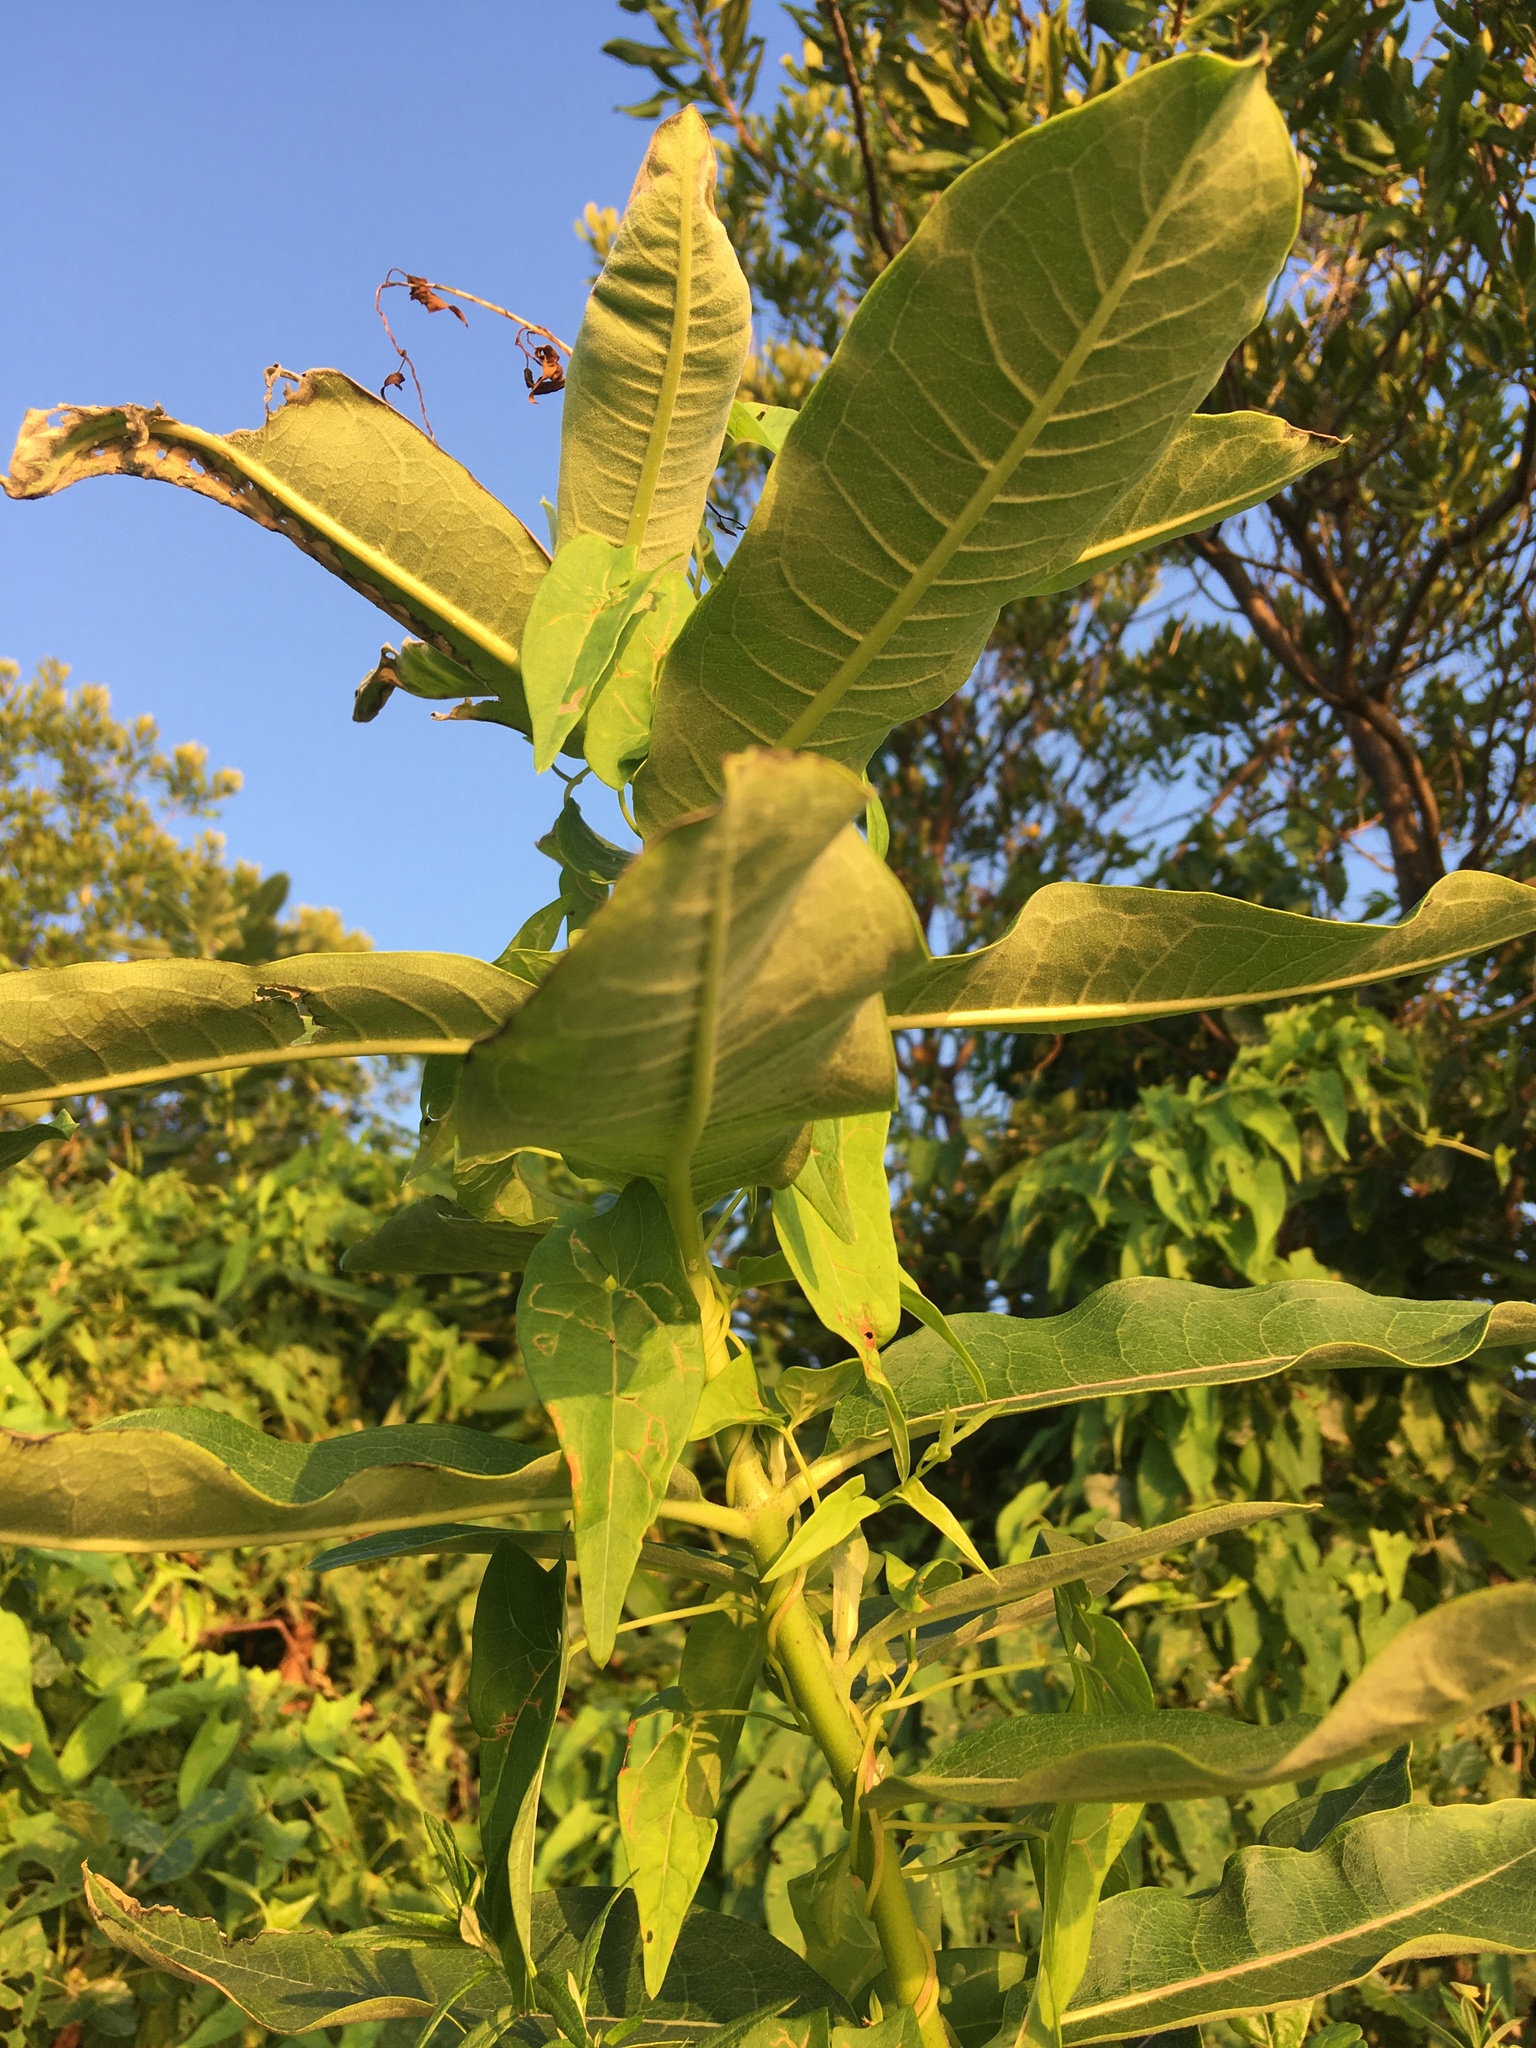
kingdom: Plantae
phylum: Tracheophyta
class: Magnoliopsida
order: Gentianales
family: Apocynaceae
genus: Asclepias
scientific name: Asclepias syriaca
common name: Common milkweed
